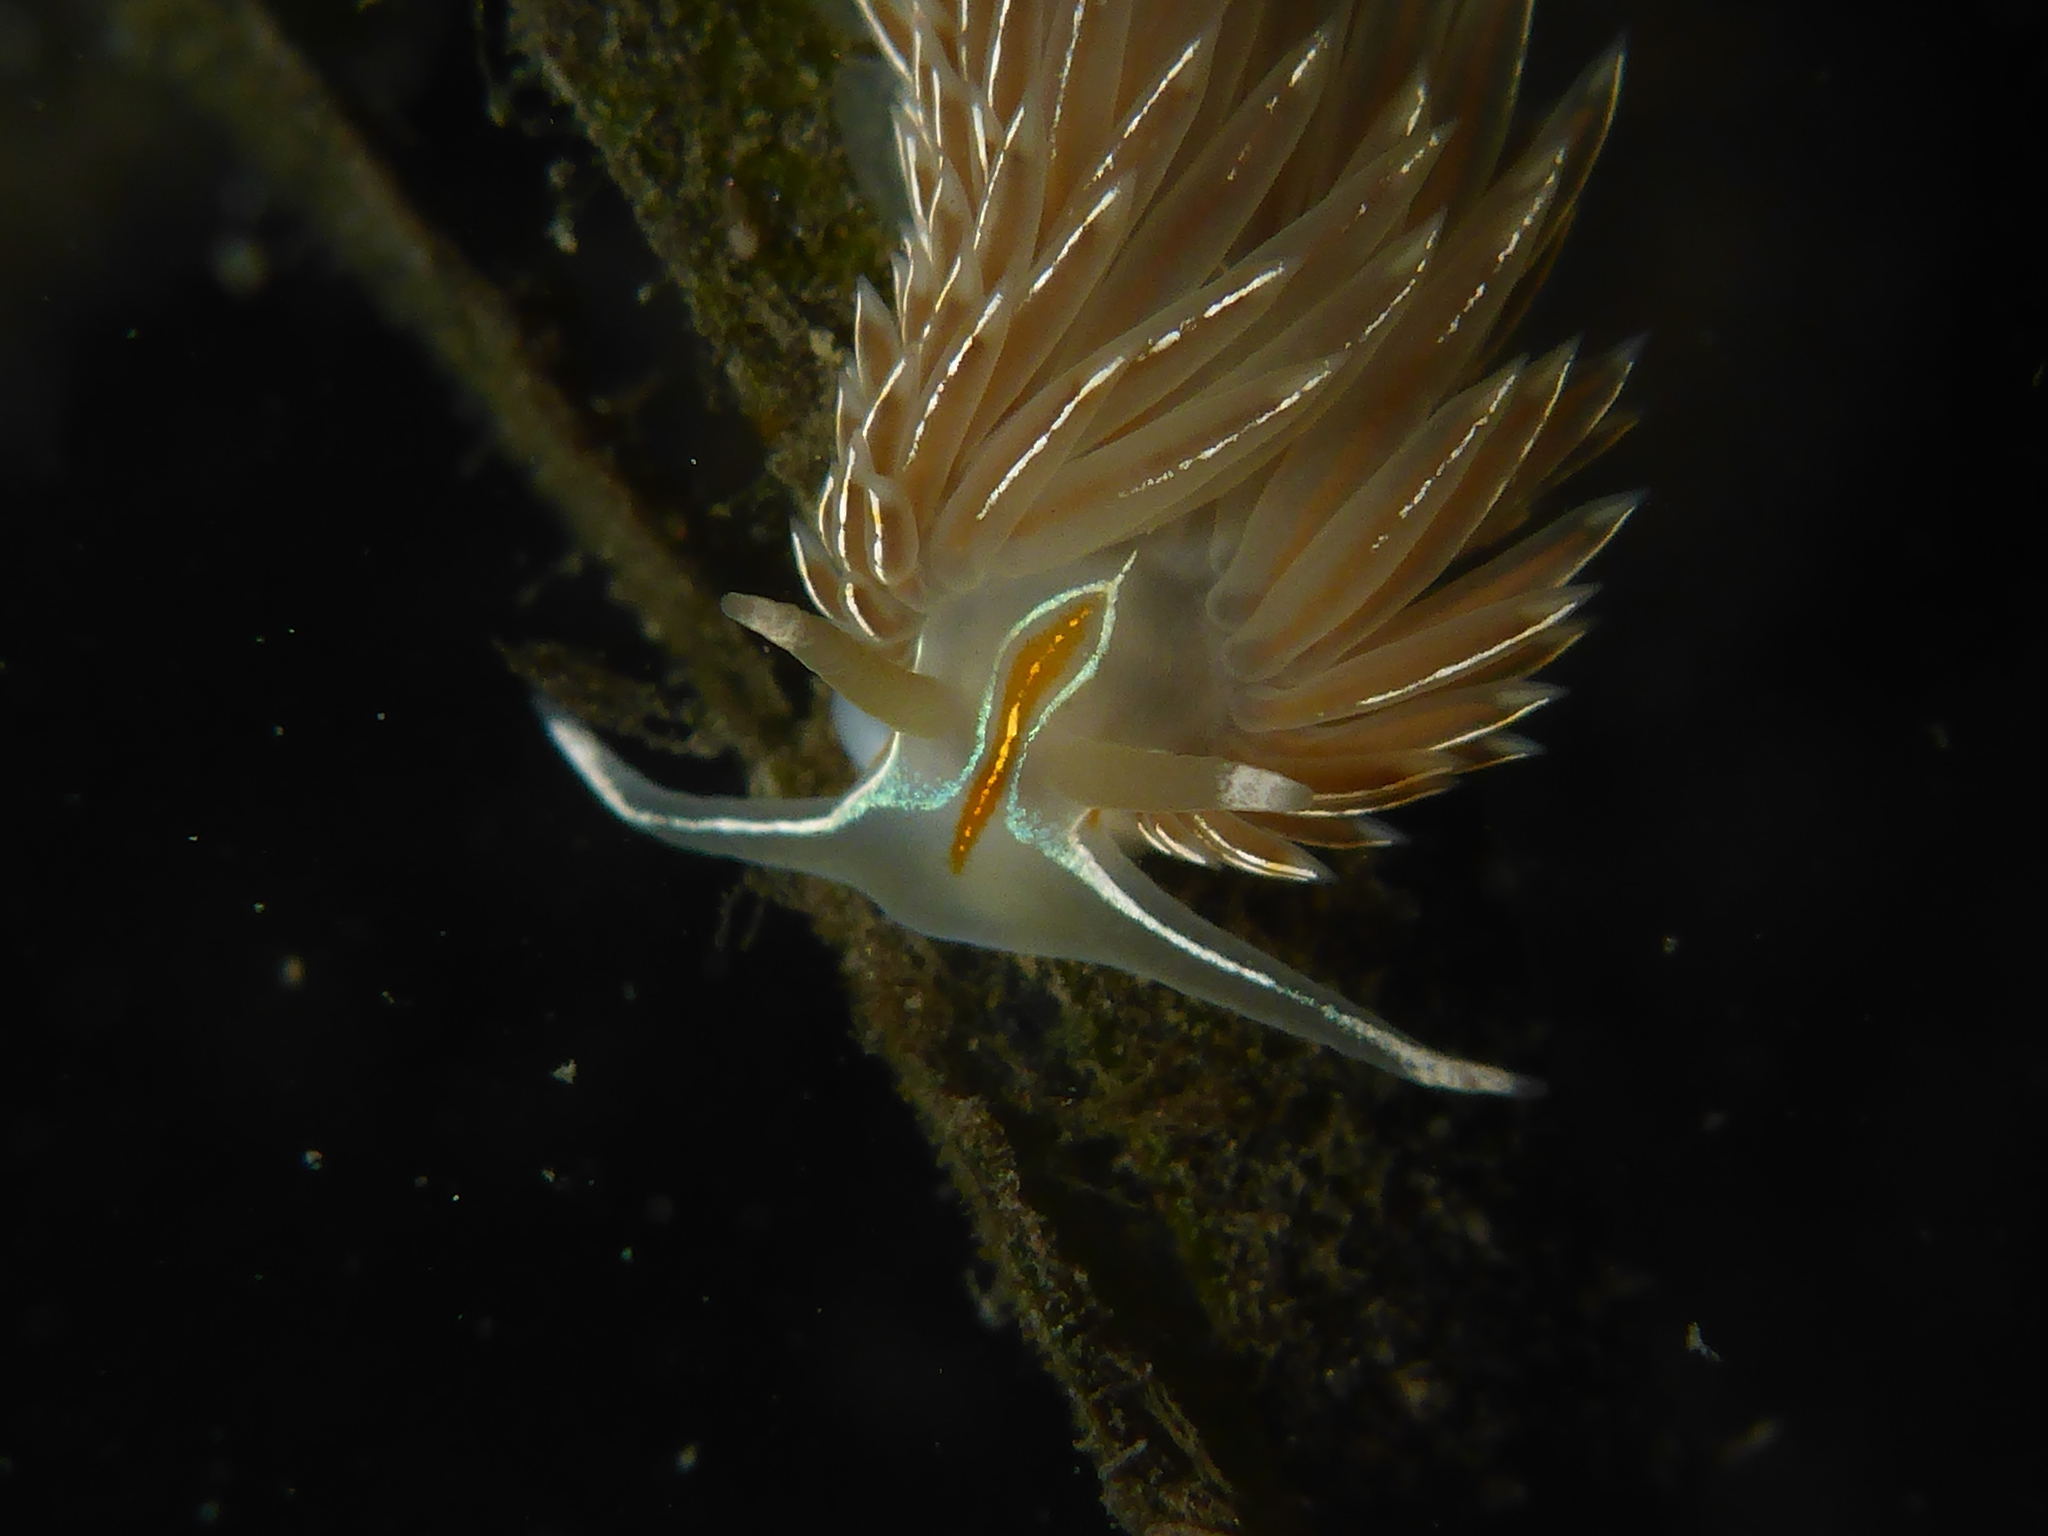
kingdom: Animalia
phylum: Mollusca
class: Gastropoda
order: Nudibranchia
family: Myrrhinidae
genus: Hermissenda
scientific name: Hermissenda crassicornis
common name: Hermissenda
